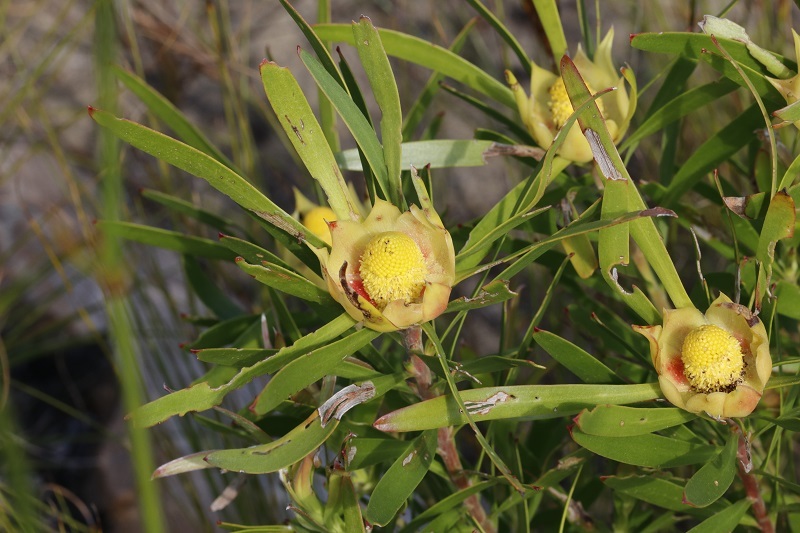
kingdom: Plantae
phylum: Tracheophyta
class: Magnoliopsida
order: Proteales
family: Proteaceae
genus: Leucadendron
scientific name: Leucadendron eucalyptifolium
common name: Gum-leaved conebush
